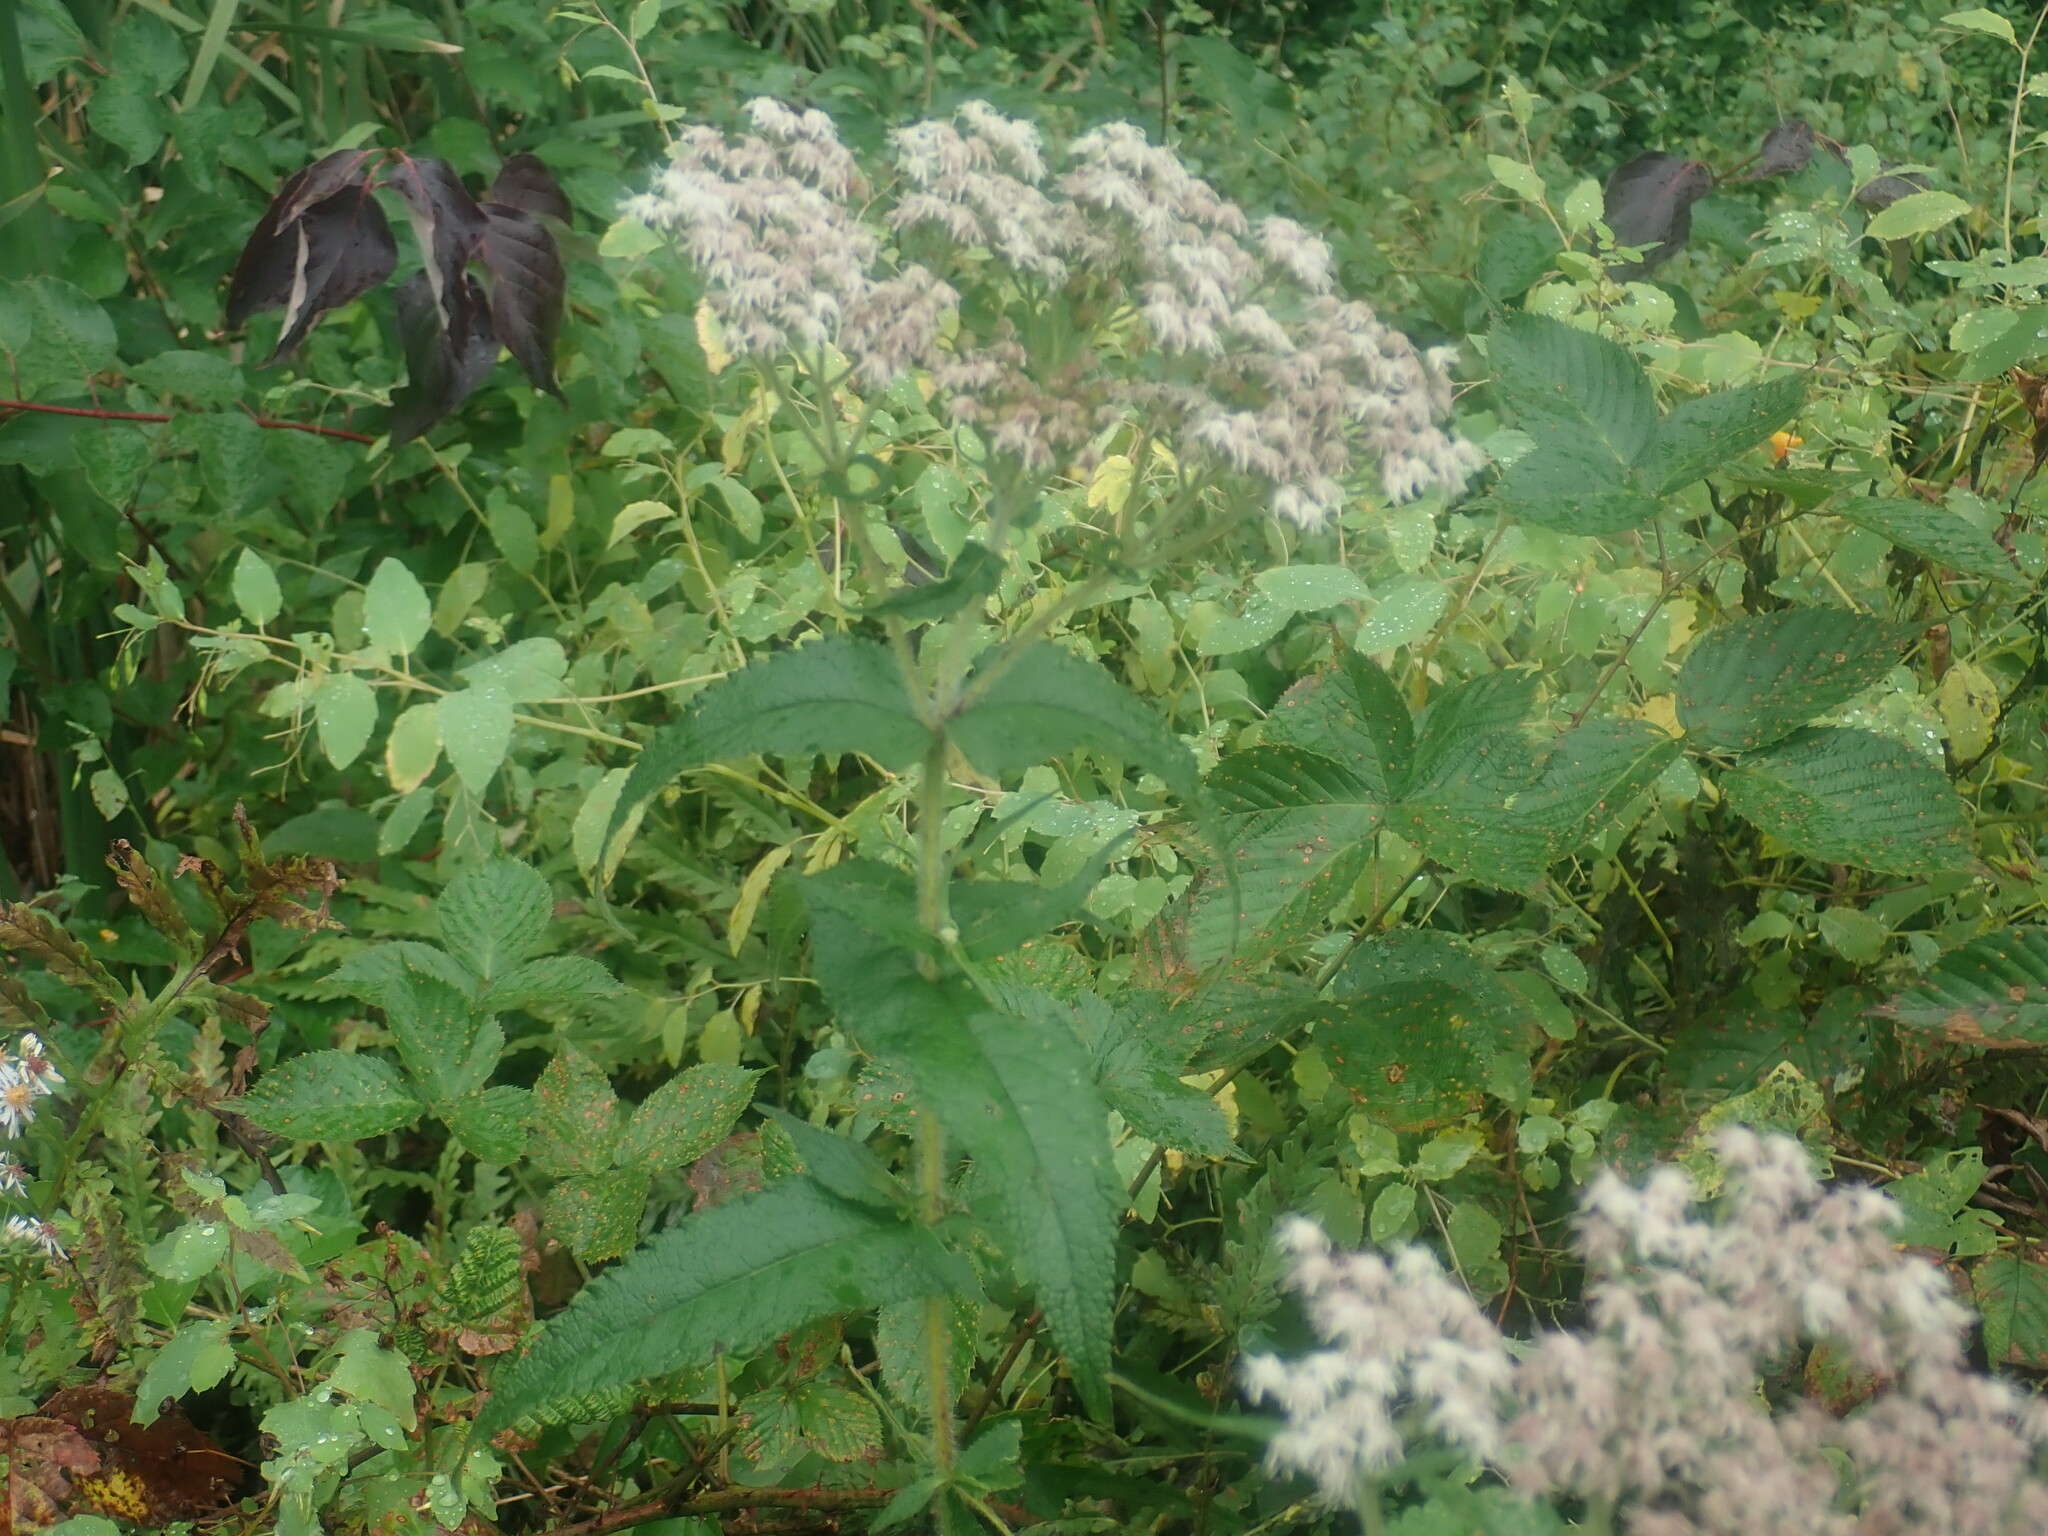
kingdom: Plantae
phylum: Tracheophyta
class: Magnoliopsida
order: Asterales
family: Asteraceae
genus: Eupatorium
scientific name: Eupatorium perfoliatum
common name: Boneset
